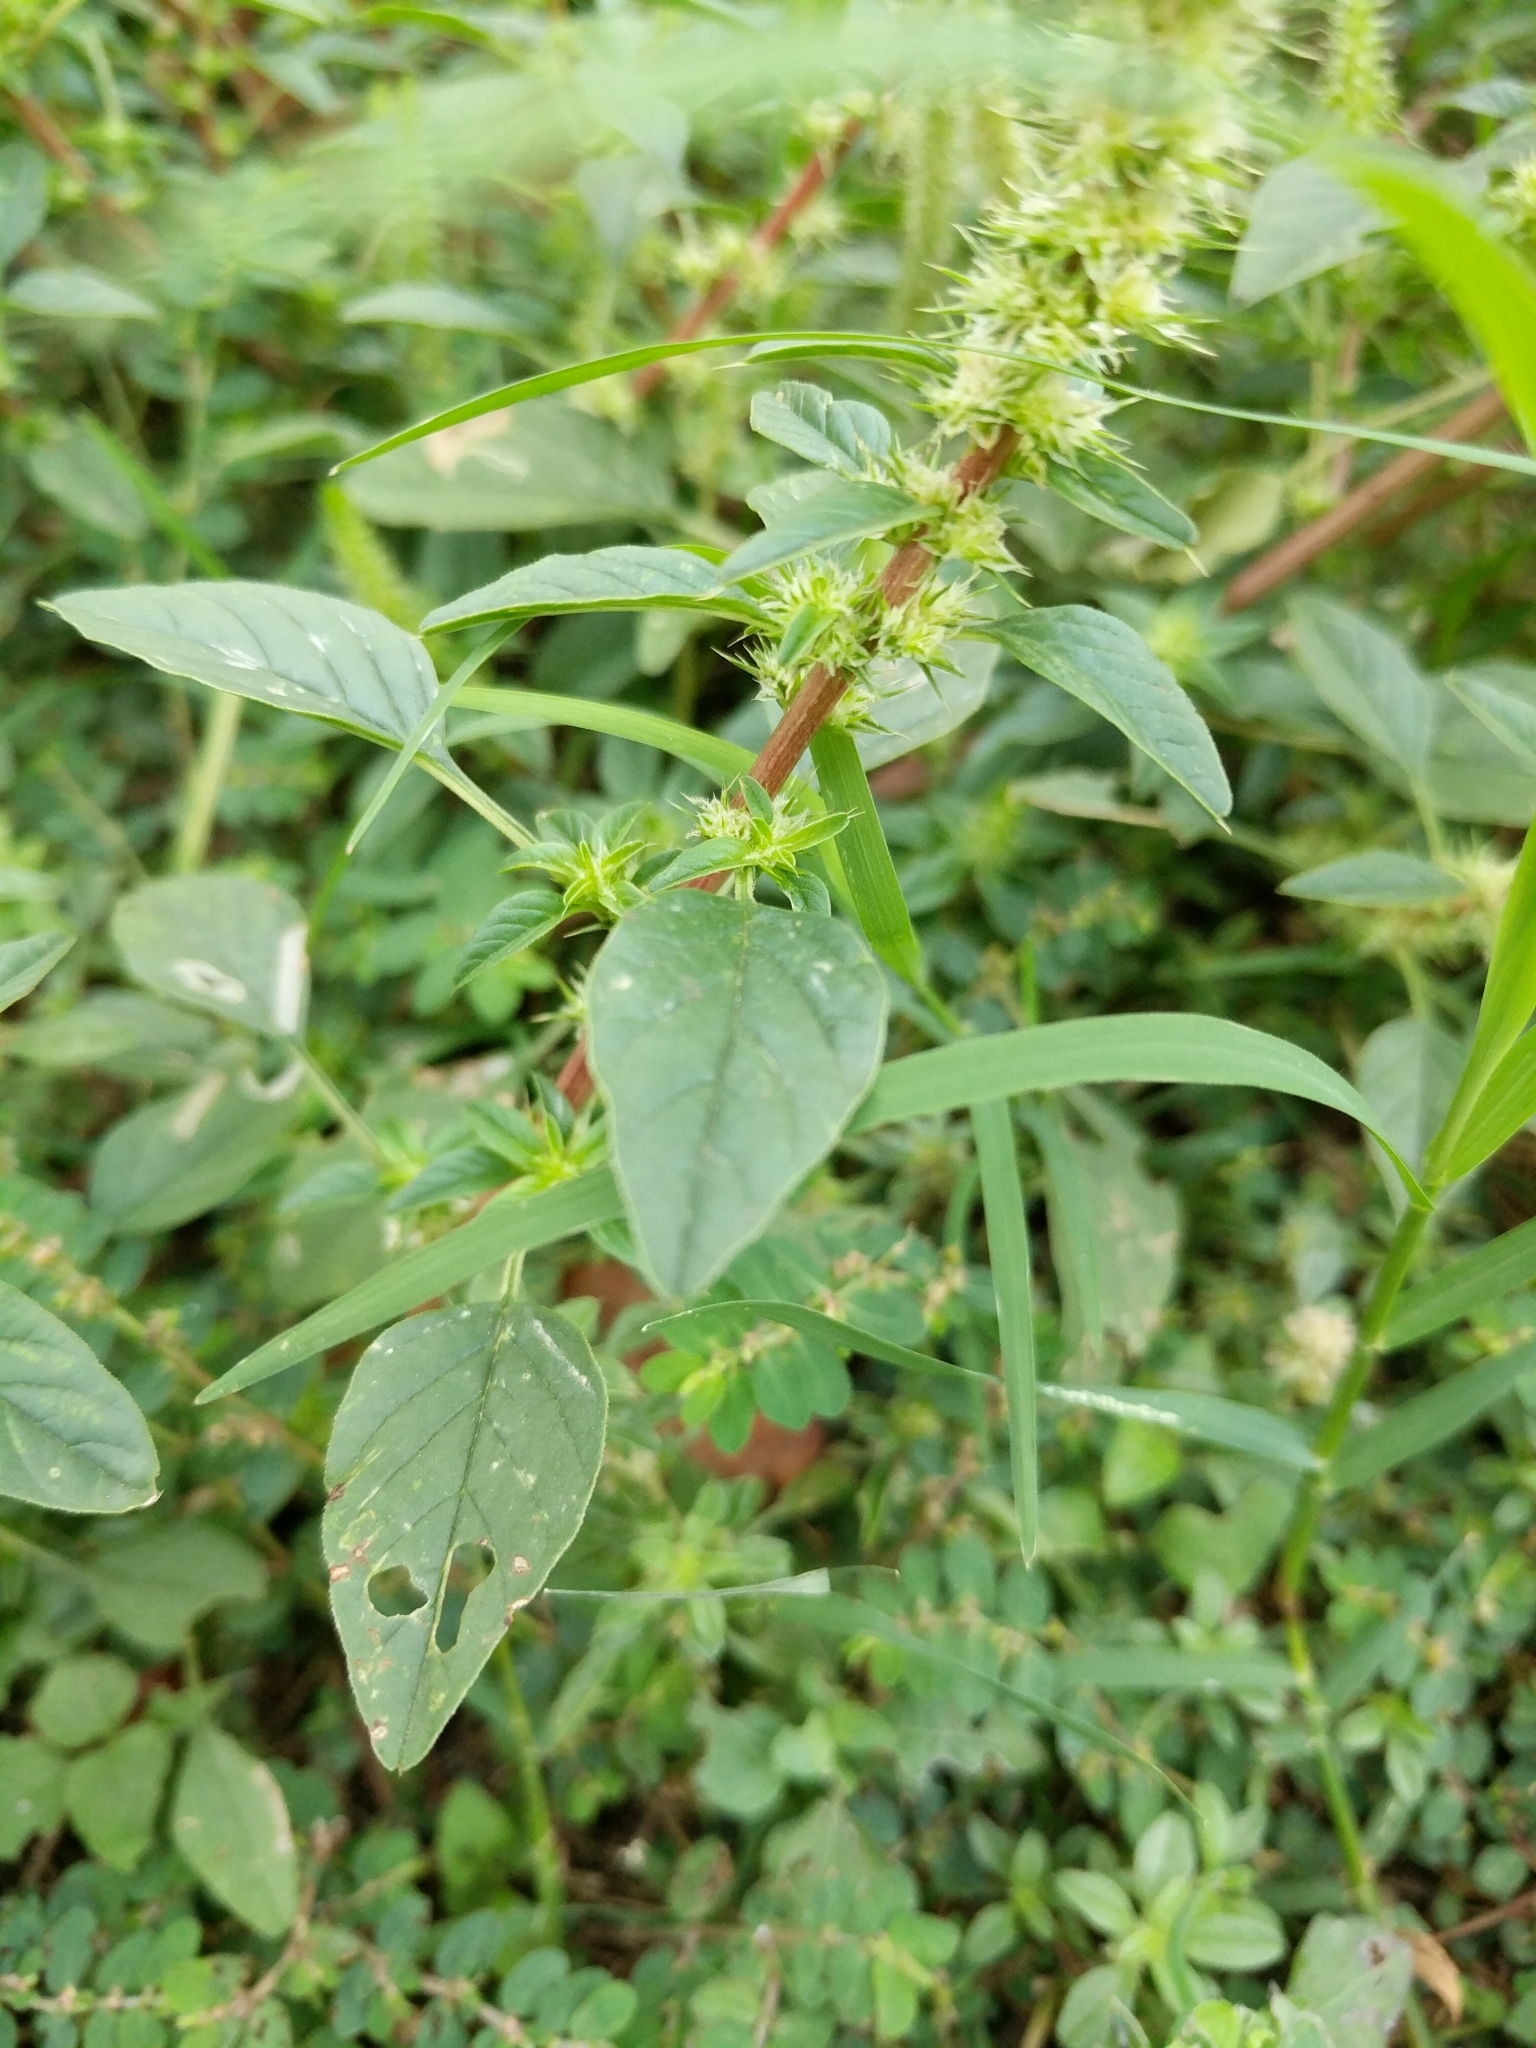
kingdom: Plantae
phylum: Tracheophyta
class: Magnoliopsida
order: Caryophyllales
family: Amaranthaceae
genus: Amaranthus
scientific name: Amaranthus palmeri
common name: Dioecious amaranth
